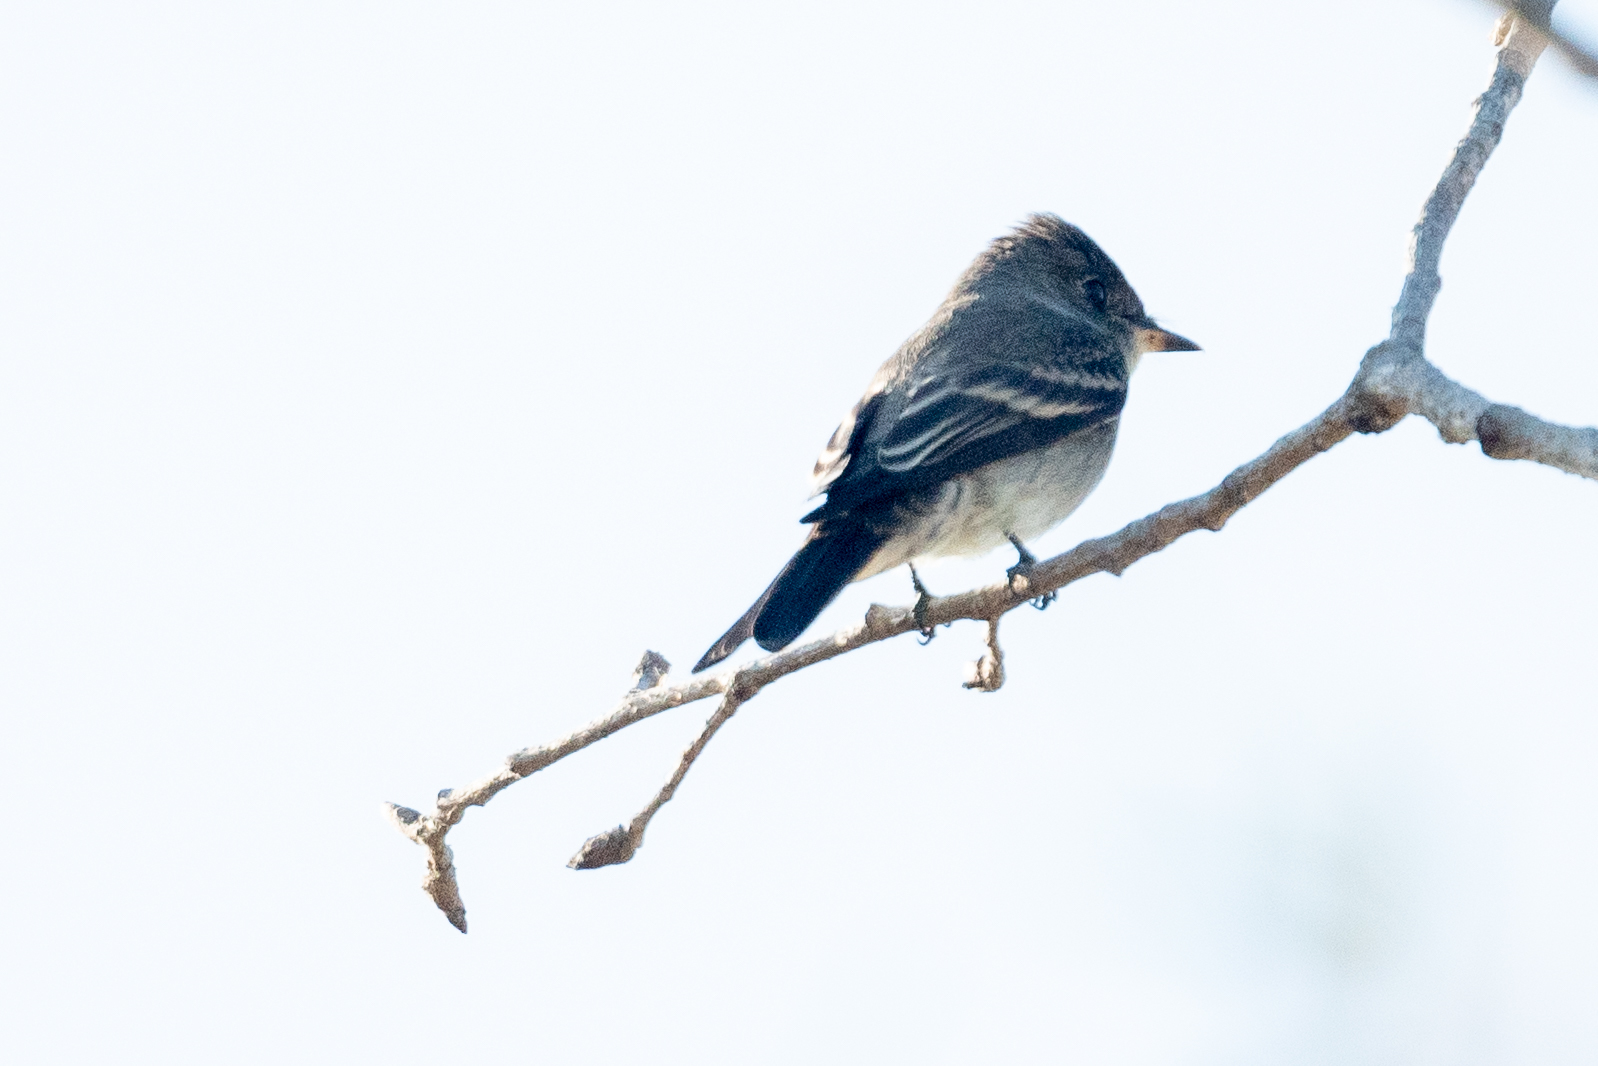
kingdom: Animalia
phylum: Chordata
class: Aves
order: Passeriformes
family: Tyrannidae
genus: Contopus
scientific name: Contopus sordidulus
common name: Western wood-pewee
